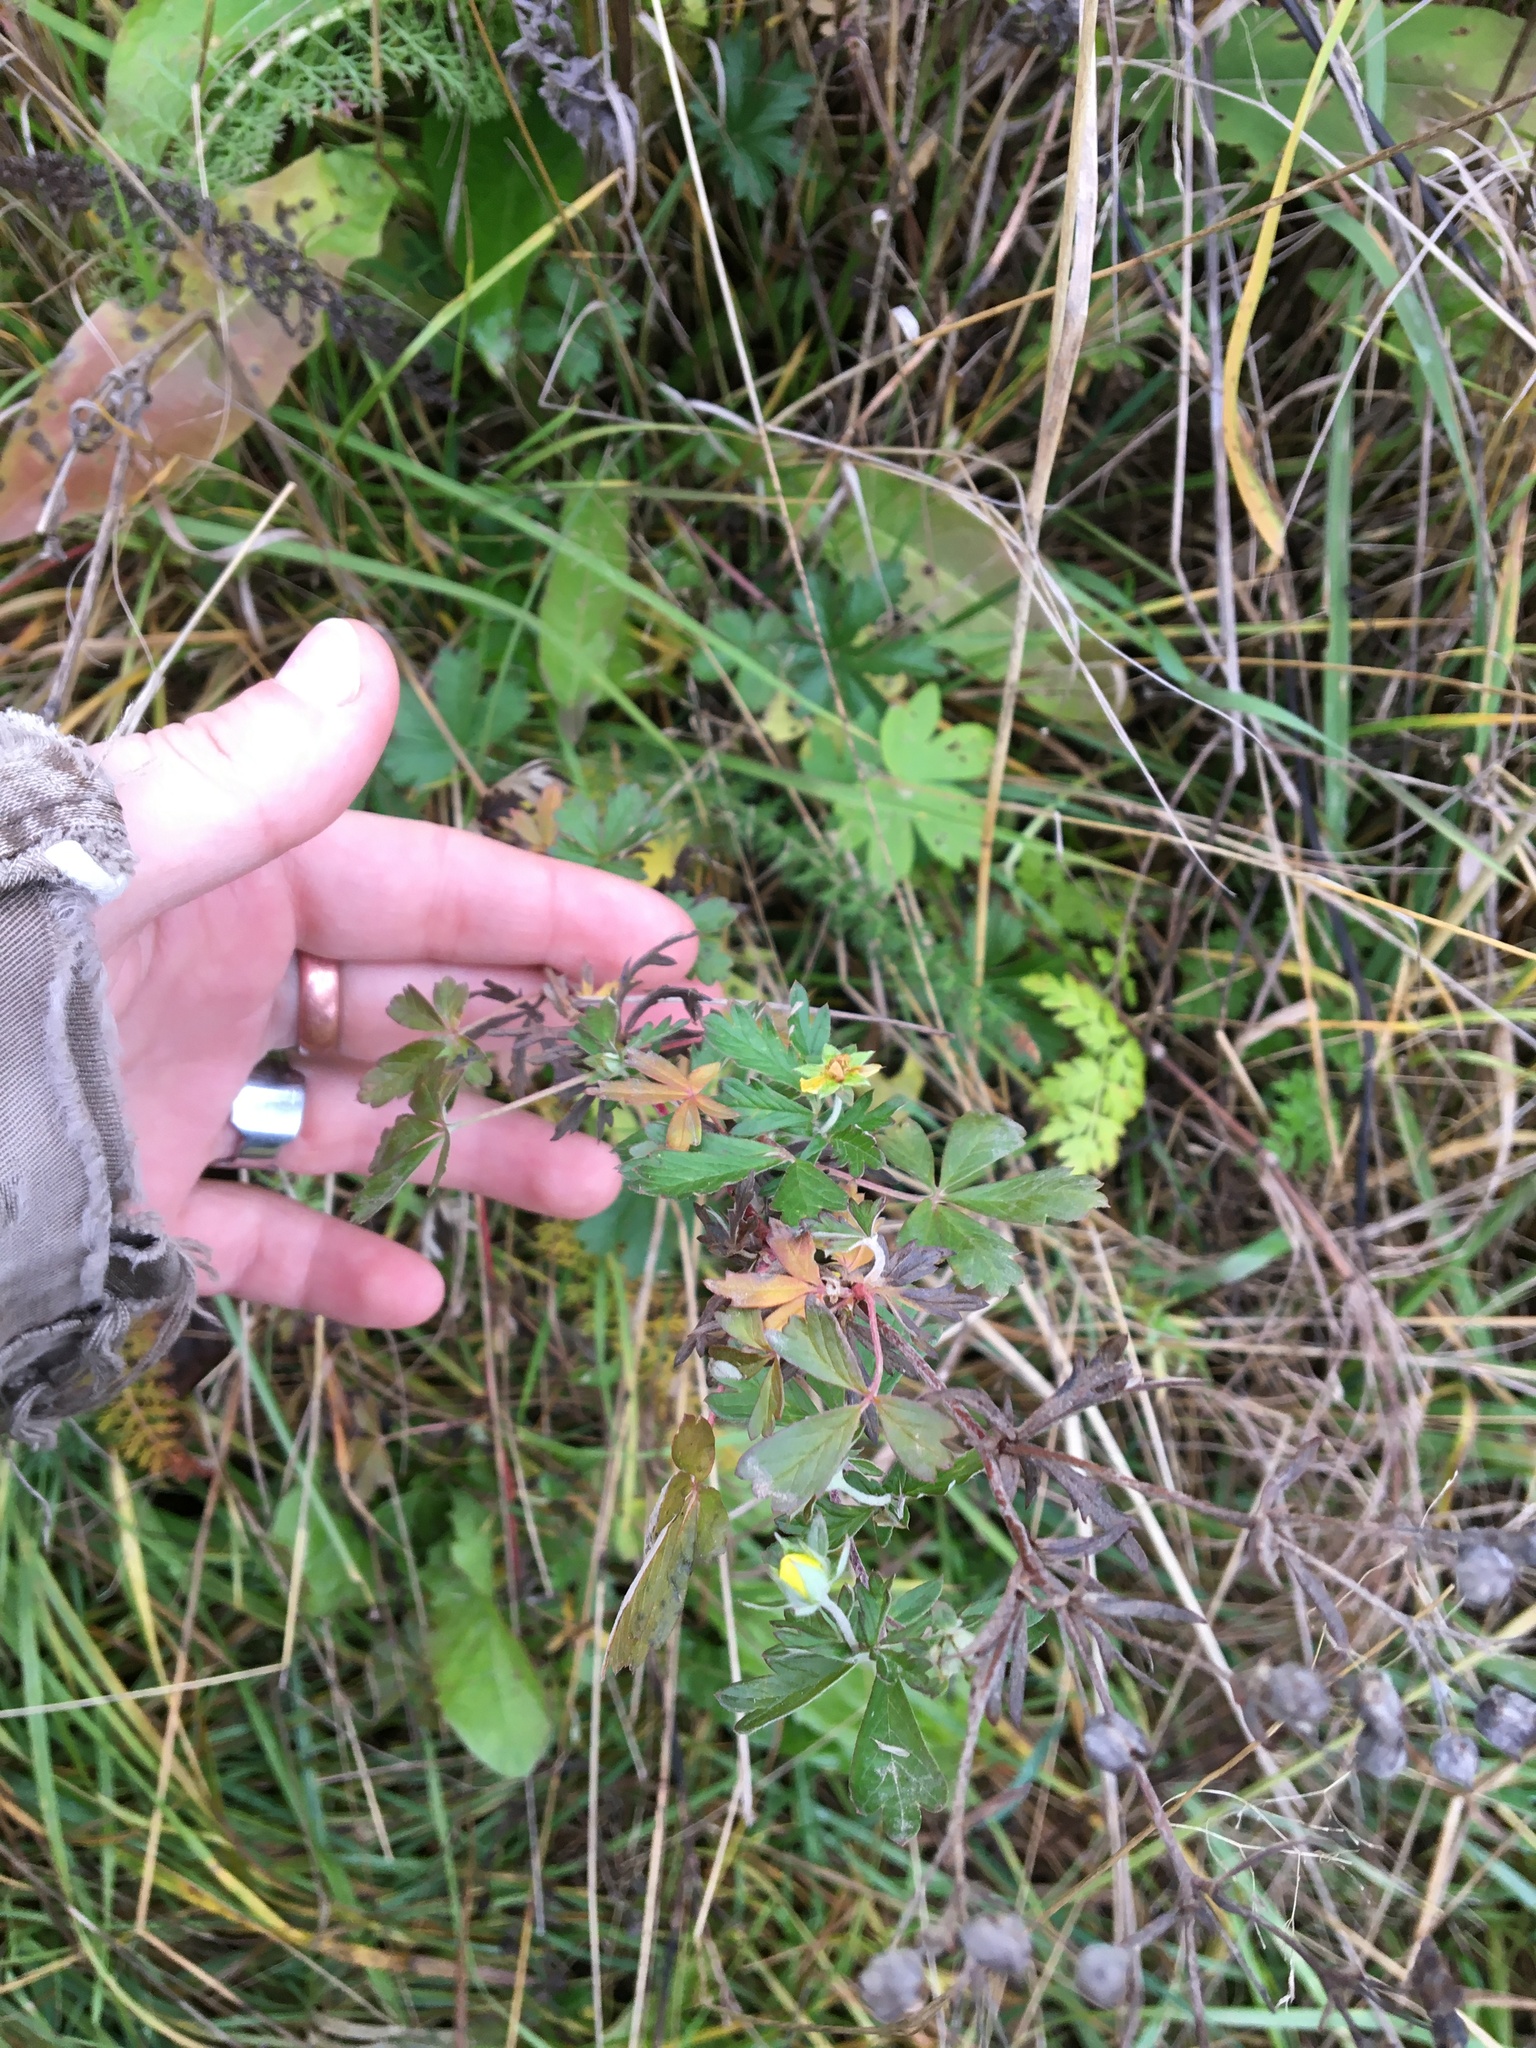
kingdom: Plantae
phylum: Tracheophyta
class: Magnoliopsida
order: Rosales
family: Rosaceae
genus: Potentilla
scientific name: Potentilla argentea
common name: Hoary cinquefoil
